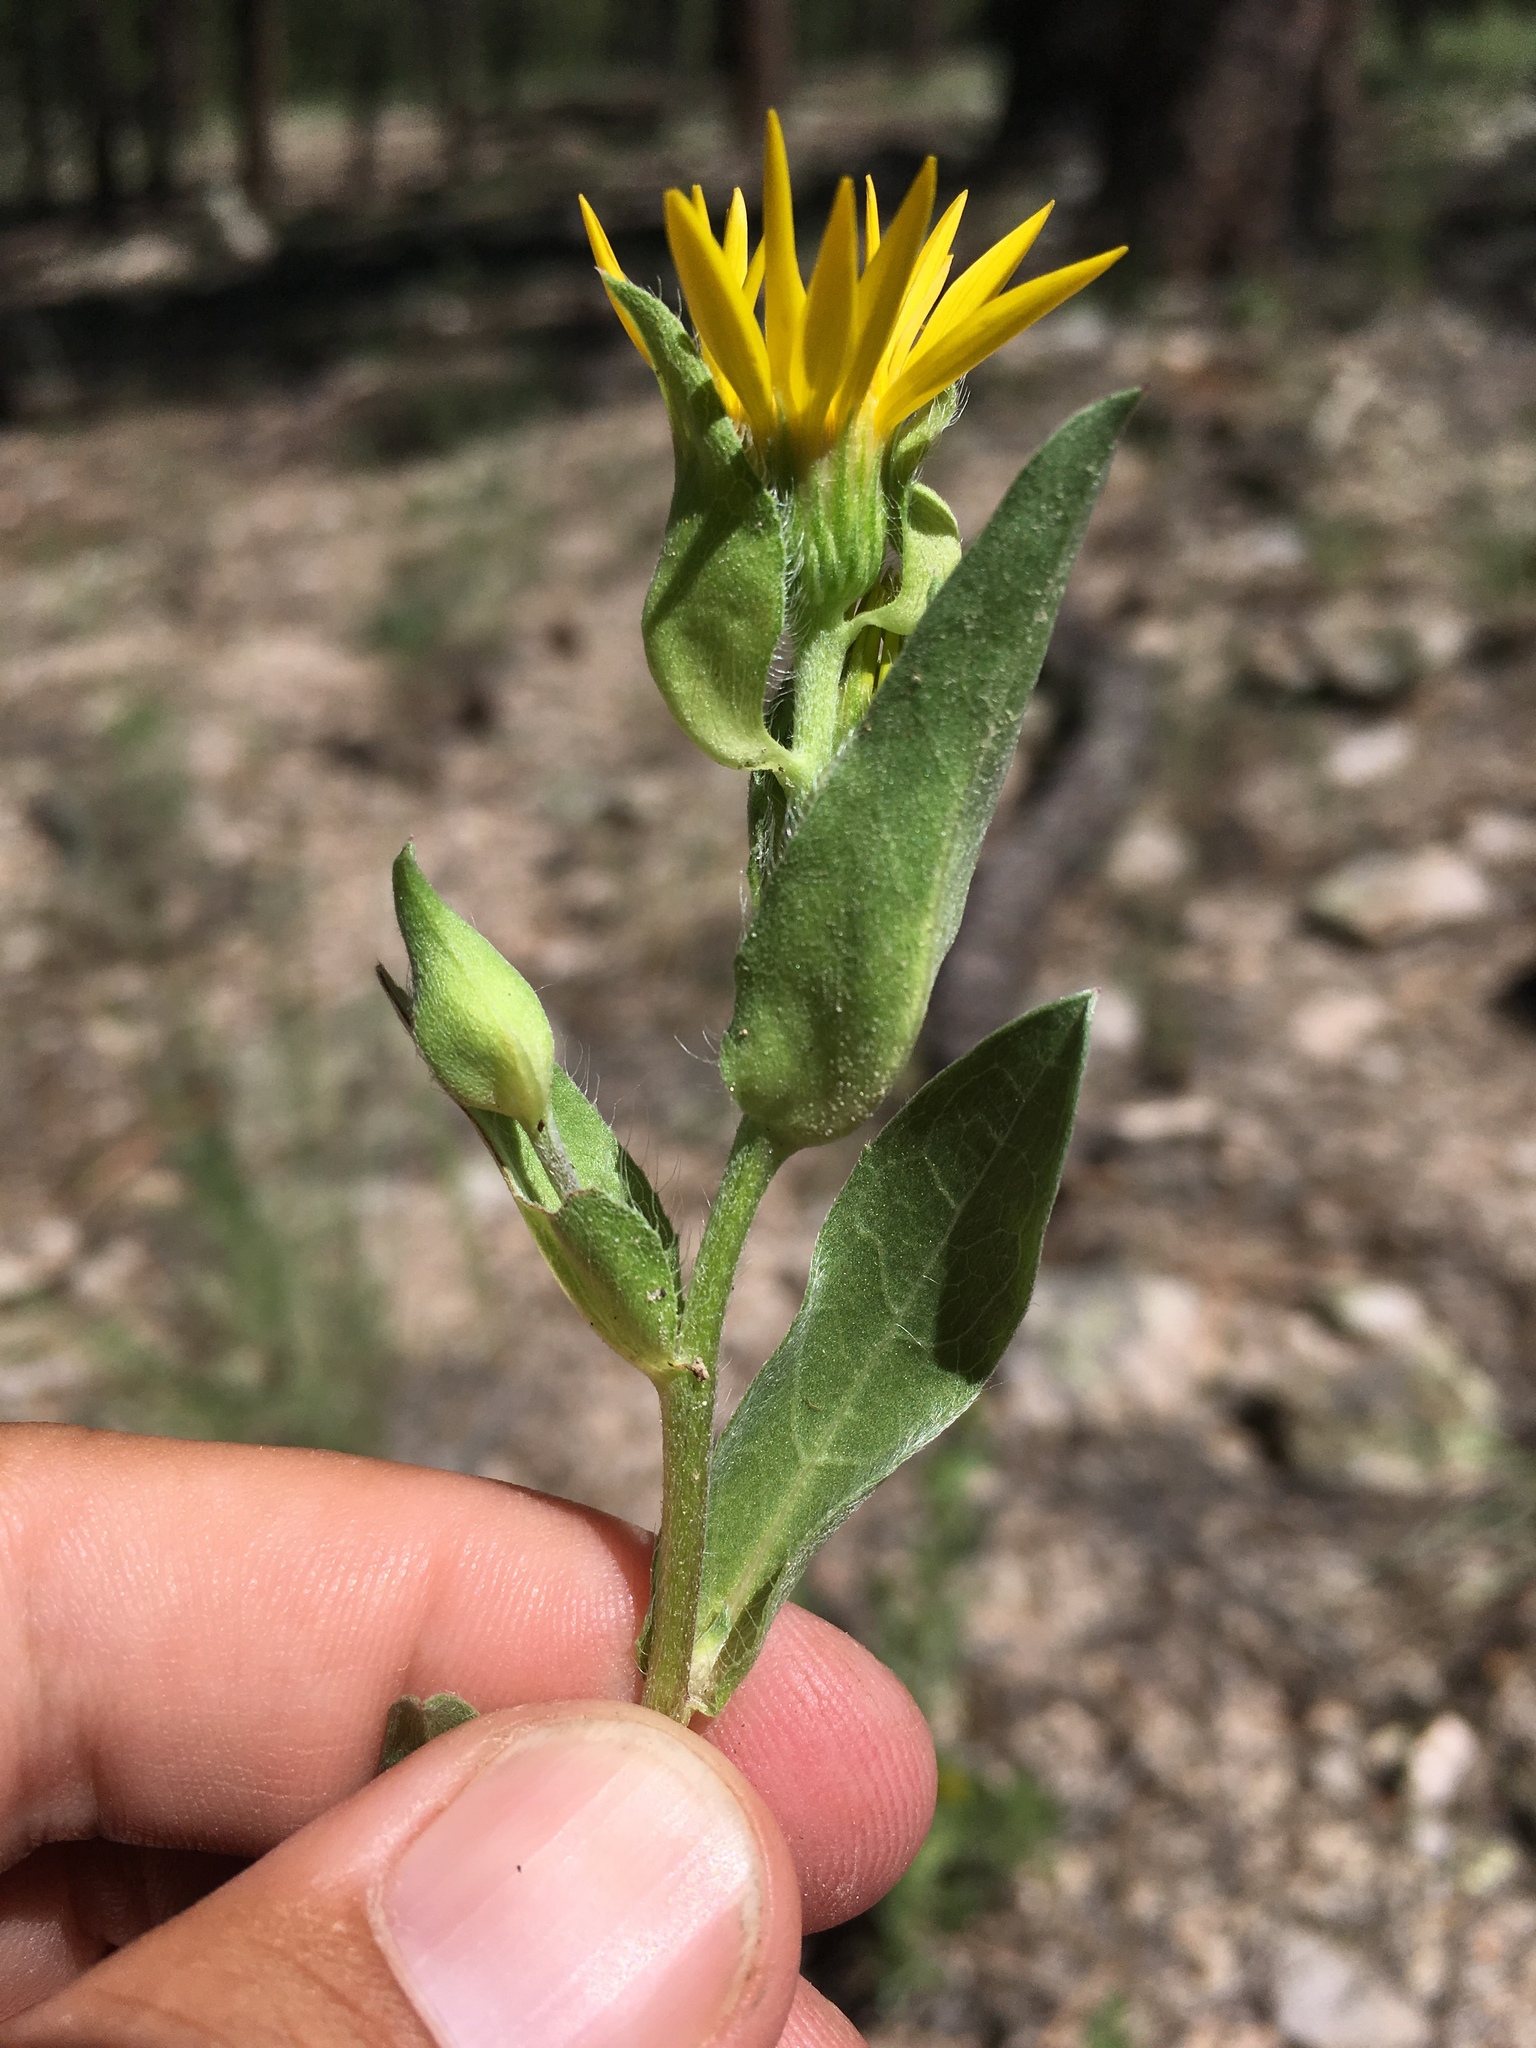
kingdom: Plantae
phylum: Tracheophyta
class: Magnoliopsida
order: Asterales
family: Asteraceae
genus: Heterotheca
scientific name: Heterotheca nitidula
